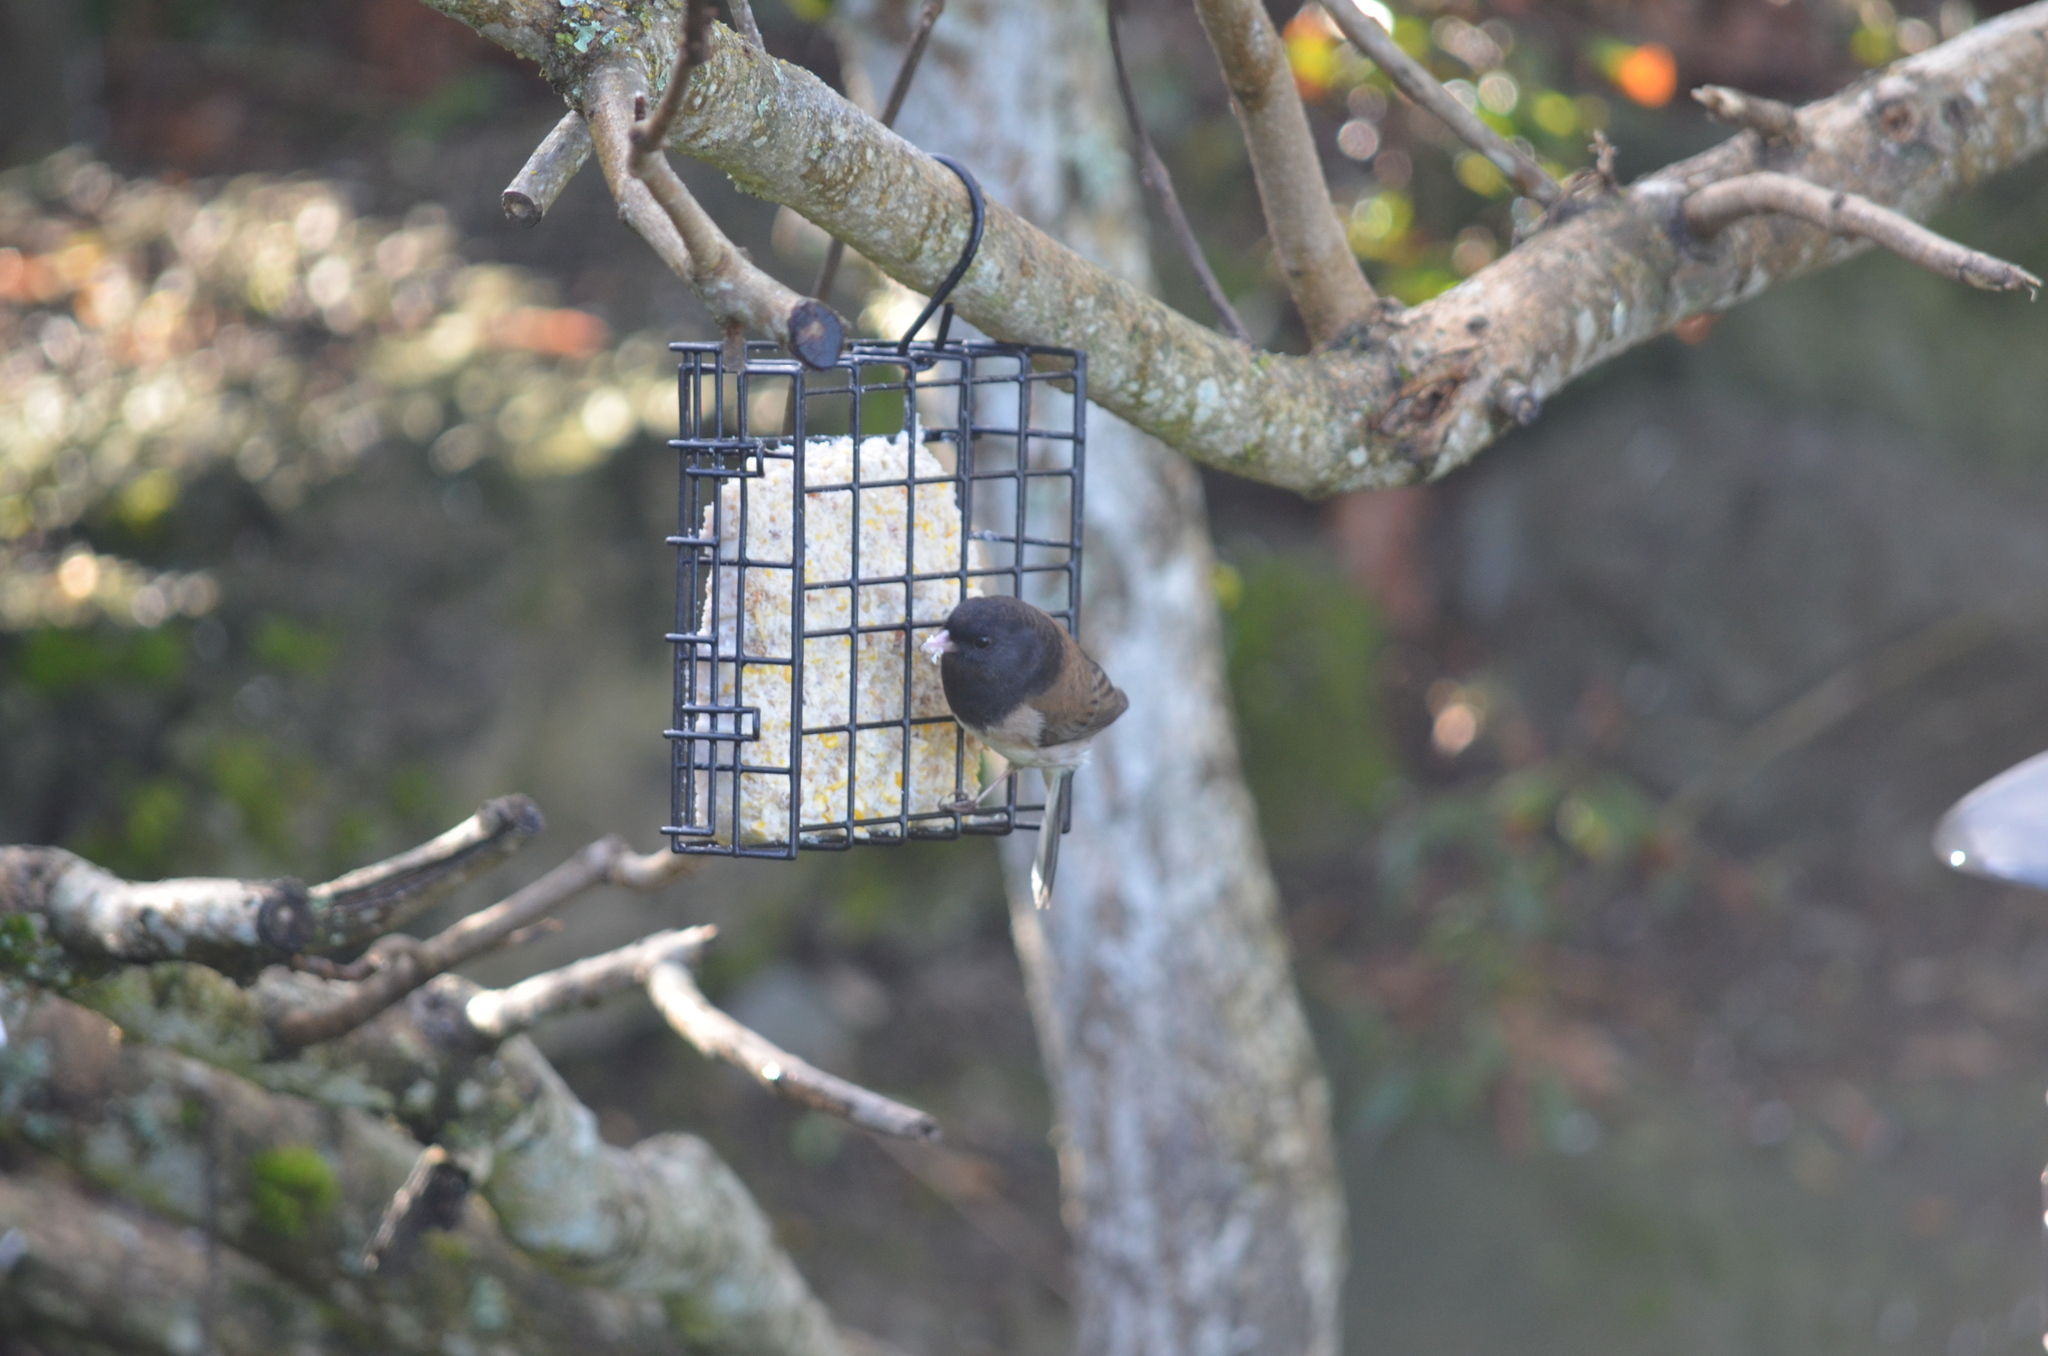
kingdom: Animalia
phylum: Chordata
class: Aves
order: Passeriformes
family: Passerellidae
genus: Junco
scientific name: Junco hyemalis
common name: Dark-eyed junco
